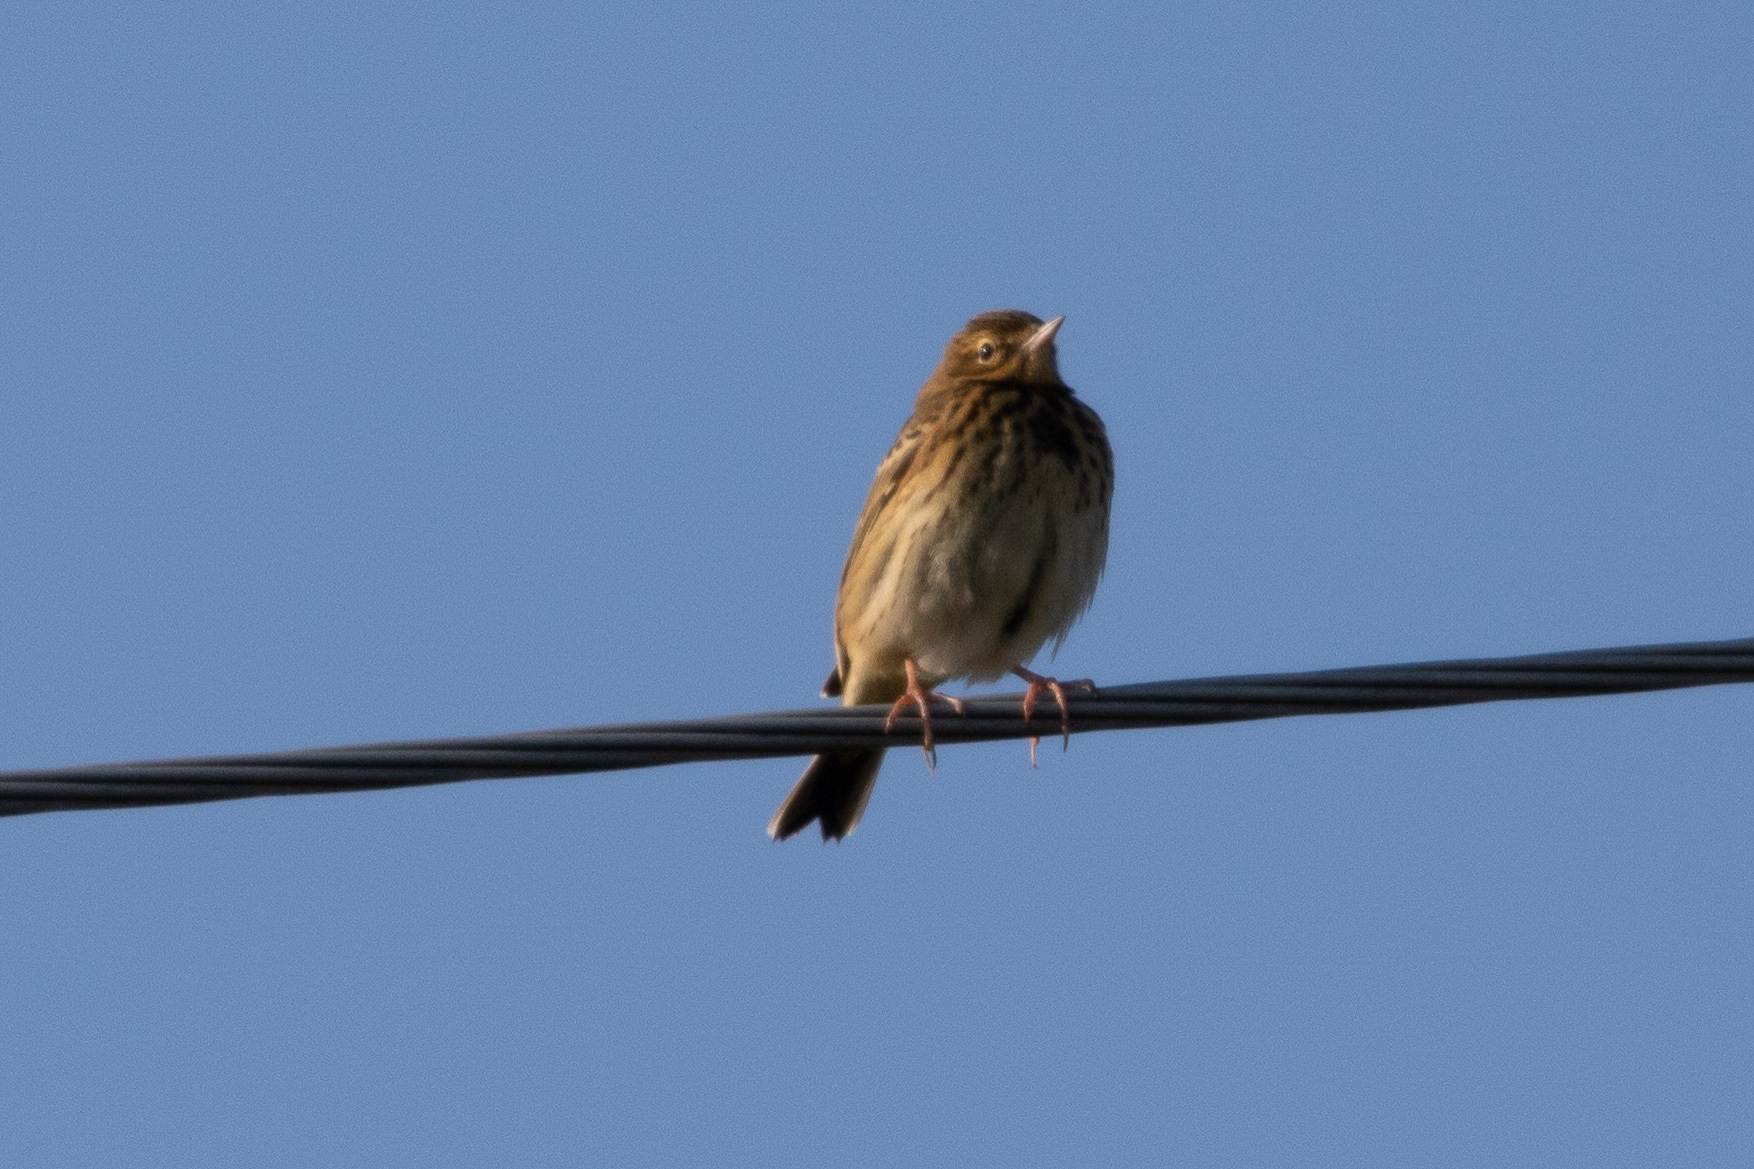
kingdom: Animalia
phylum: Chordata
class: Aves
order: Passeriformes
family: Motacillidae
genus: Anthus
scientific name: Anthus trivialis
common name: Tree pipit
